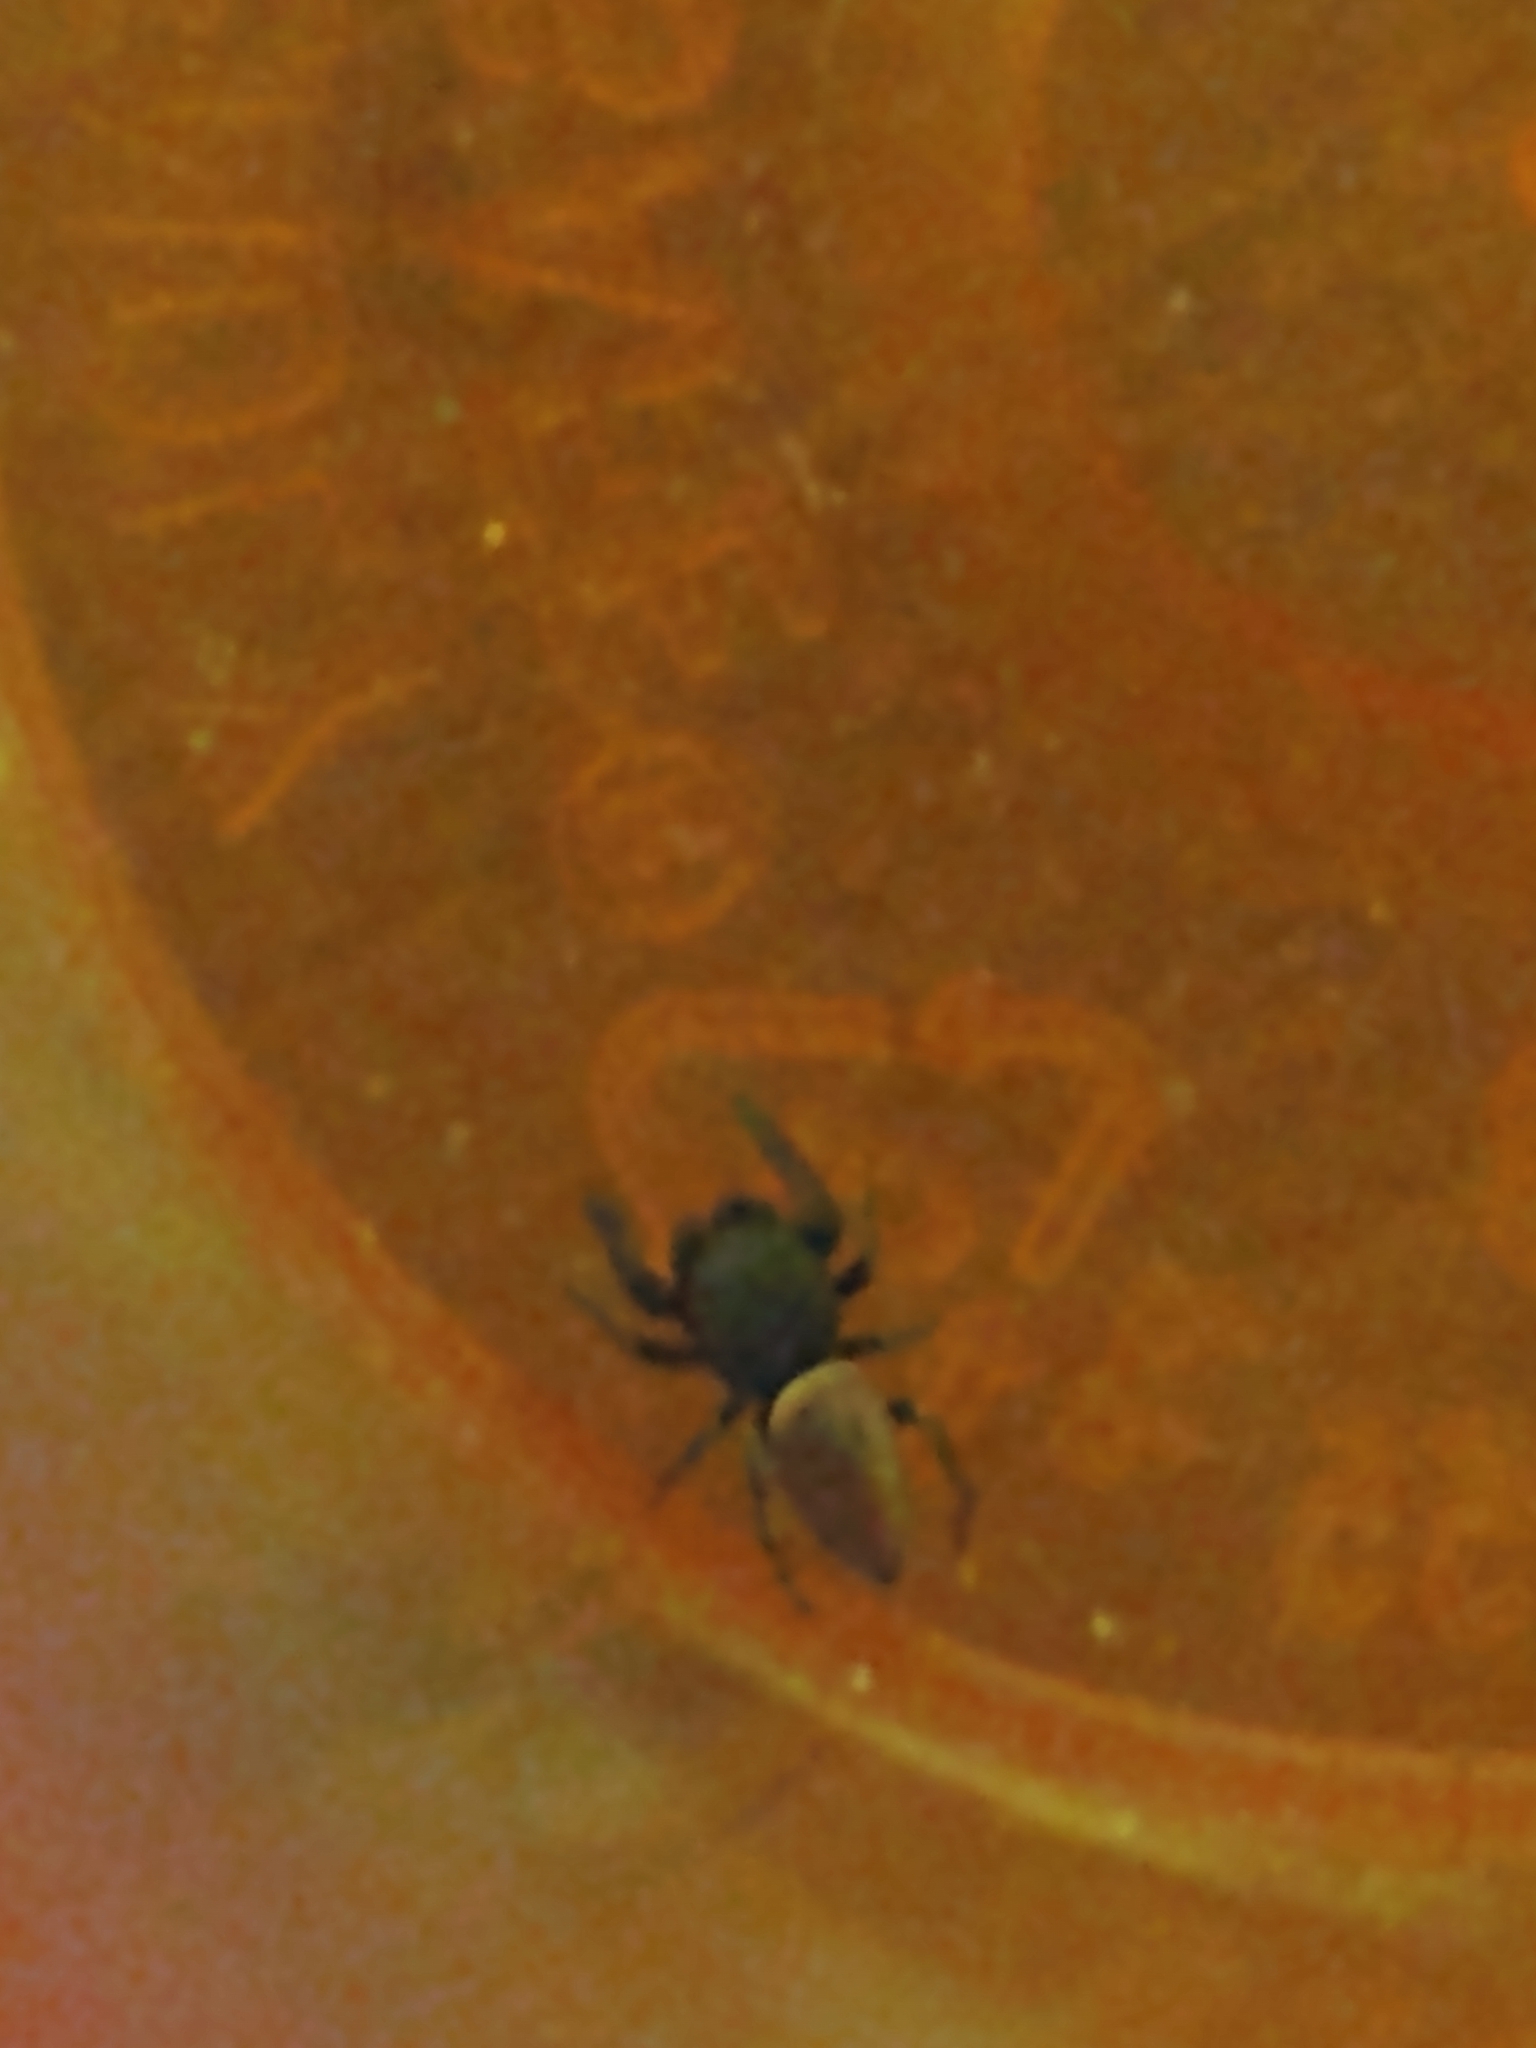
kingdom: Animalia
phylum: Arthropoda
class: Arachnida
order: Araneae
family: Salticidae
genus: Sassacus
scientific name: Sassacus papenhoei
